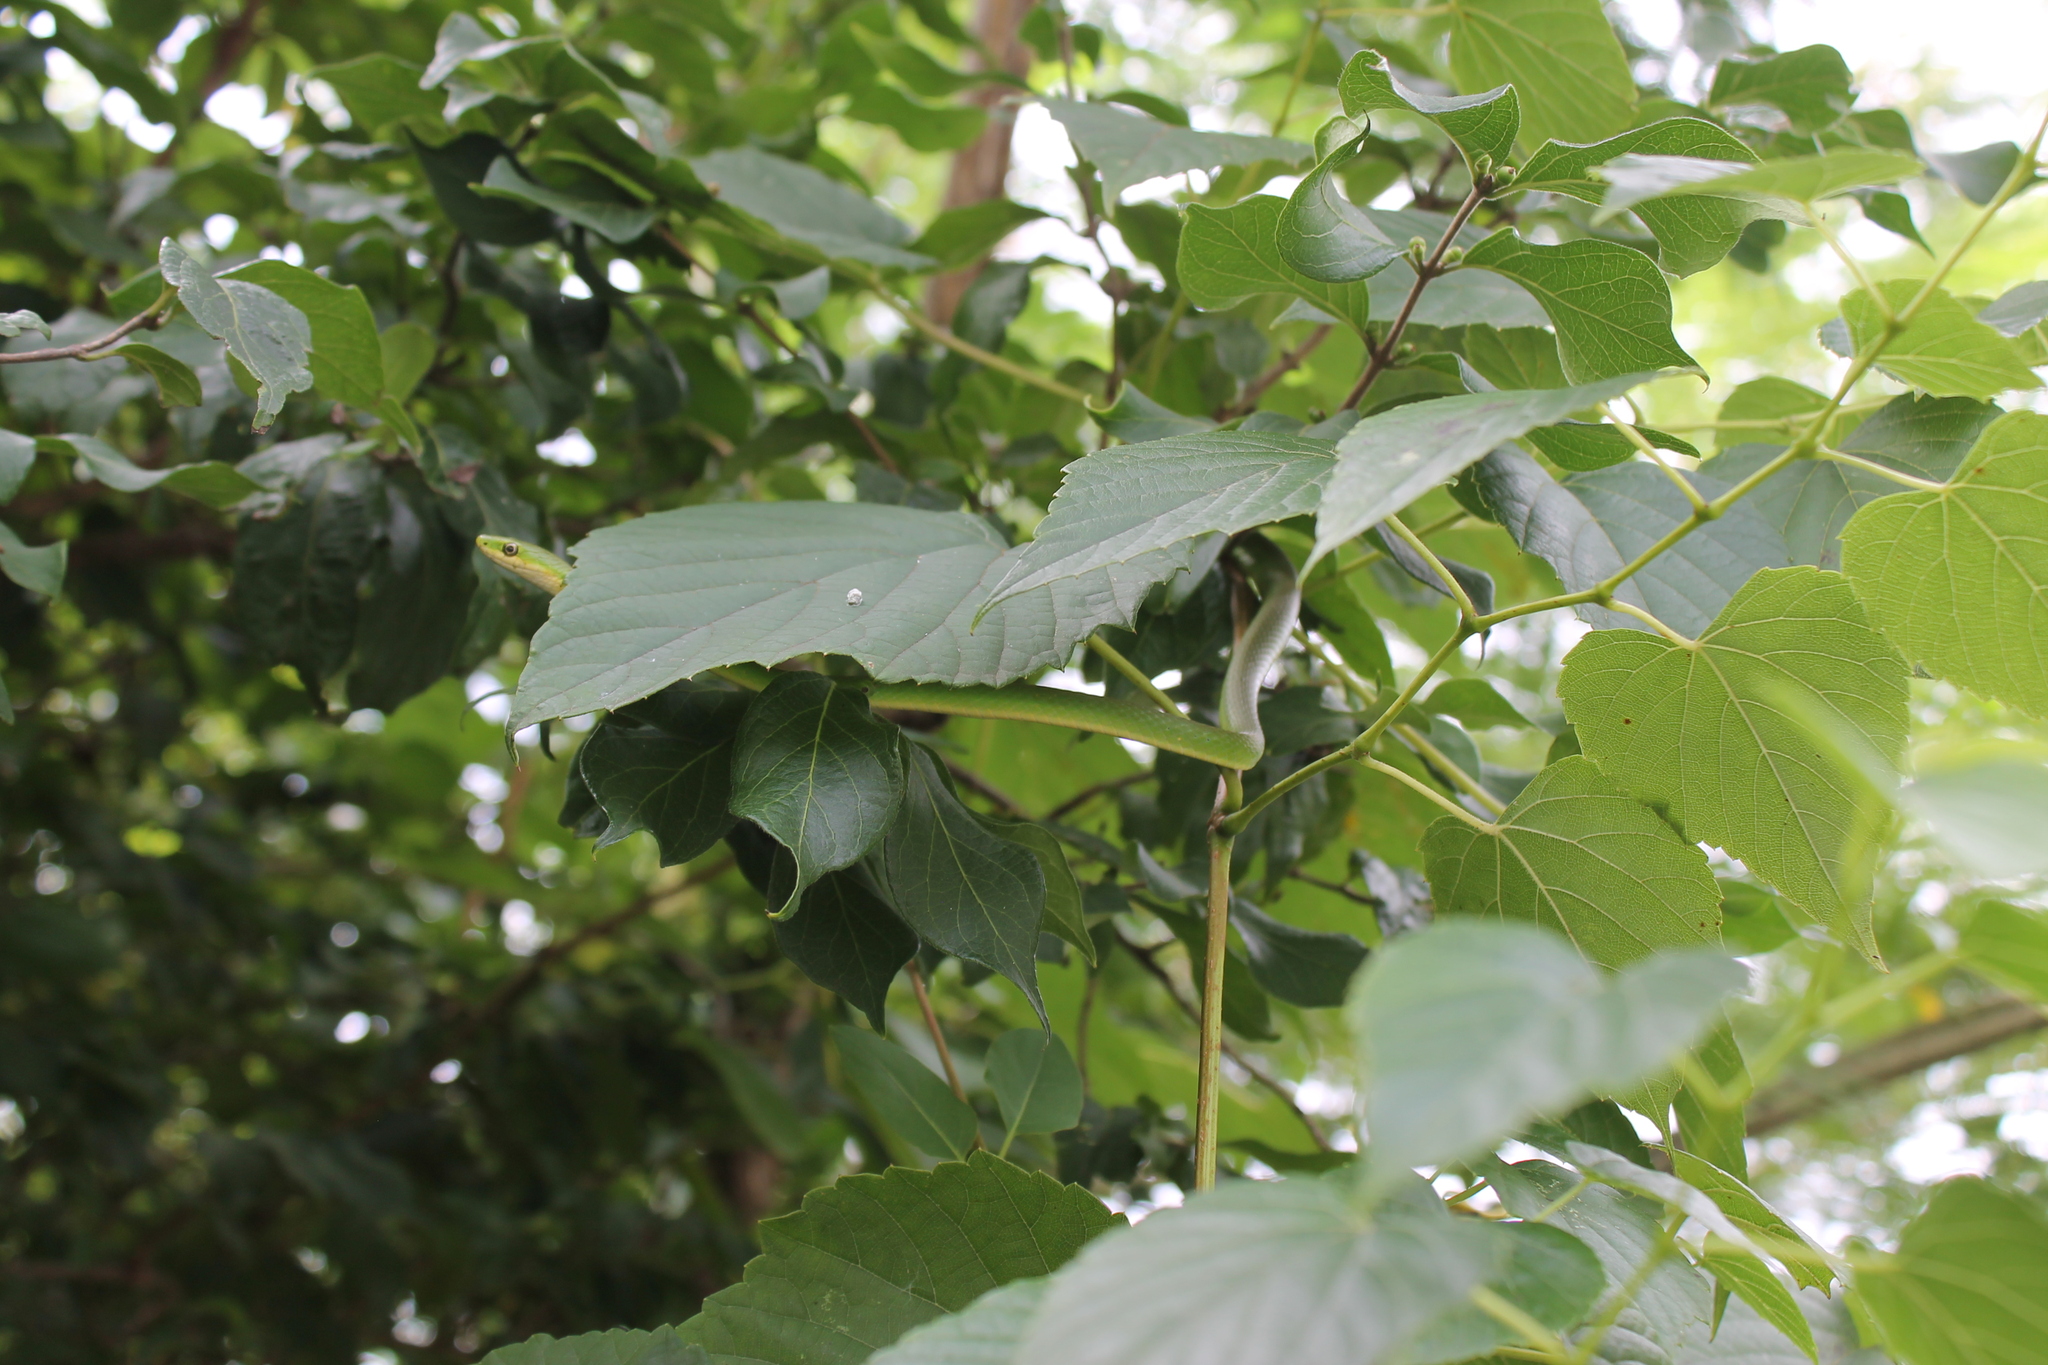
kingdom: Animalia
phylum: Chordata
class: Squamata
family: Colubridae
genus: Opheodrys
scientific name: Opheodrys aestivus
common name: Rough greensnake
